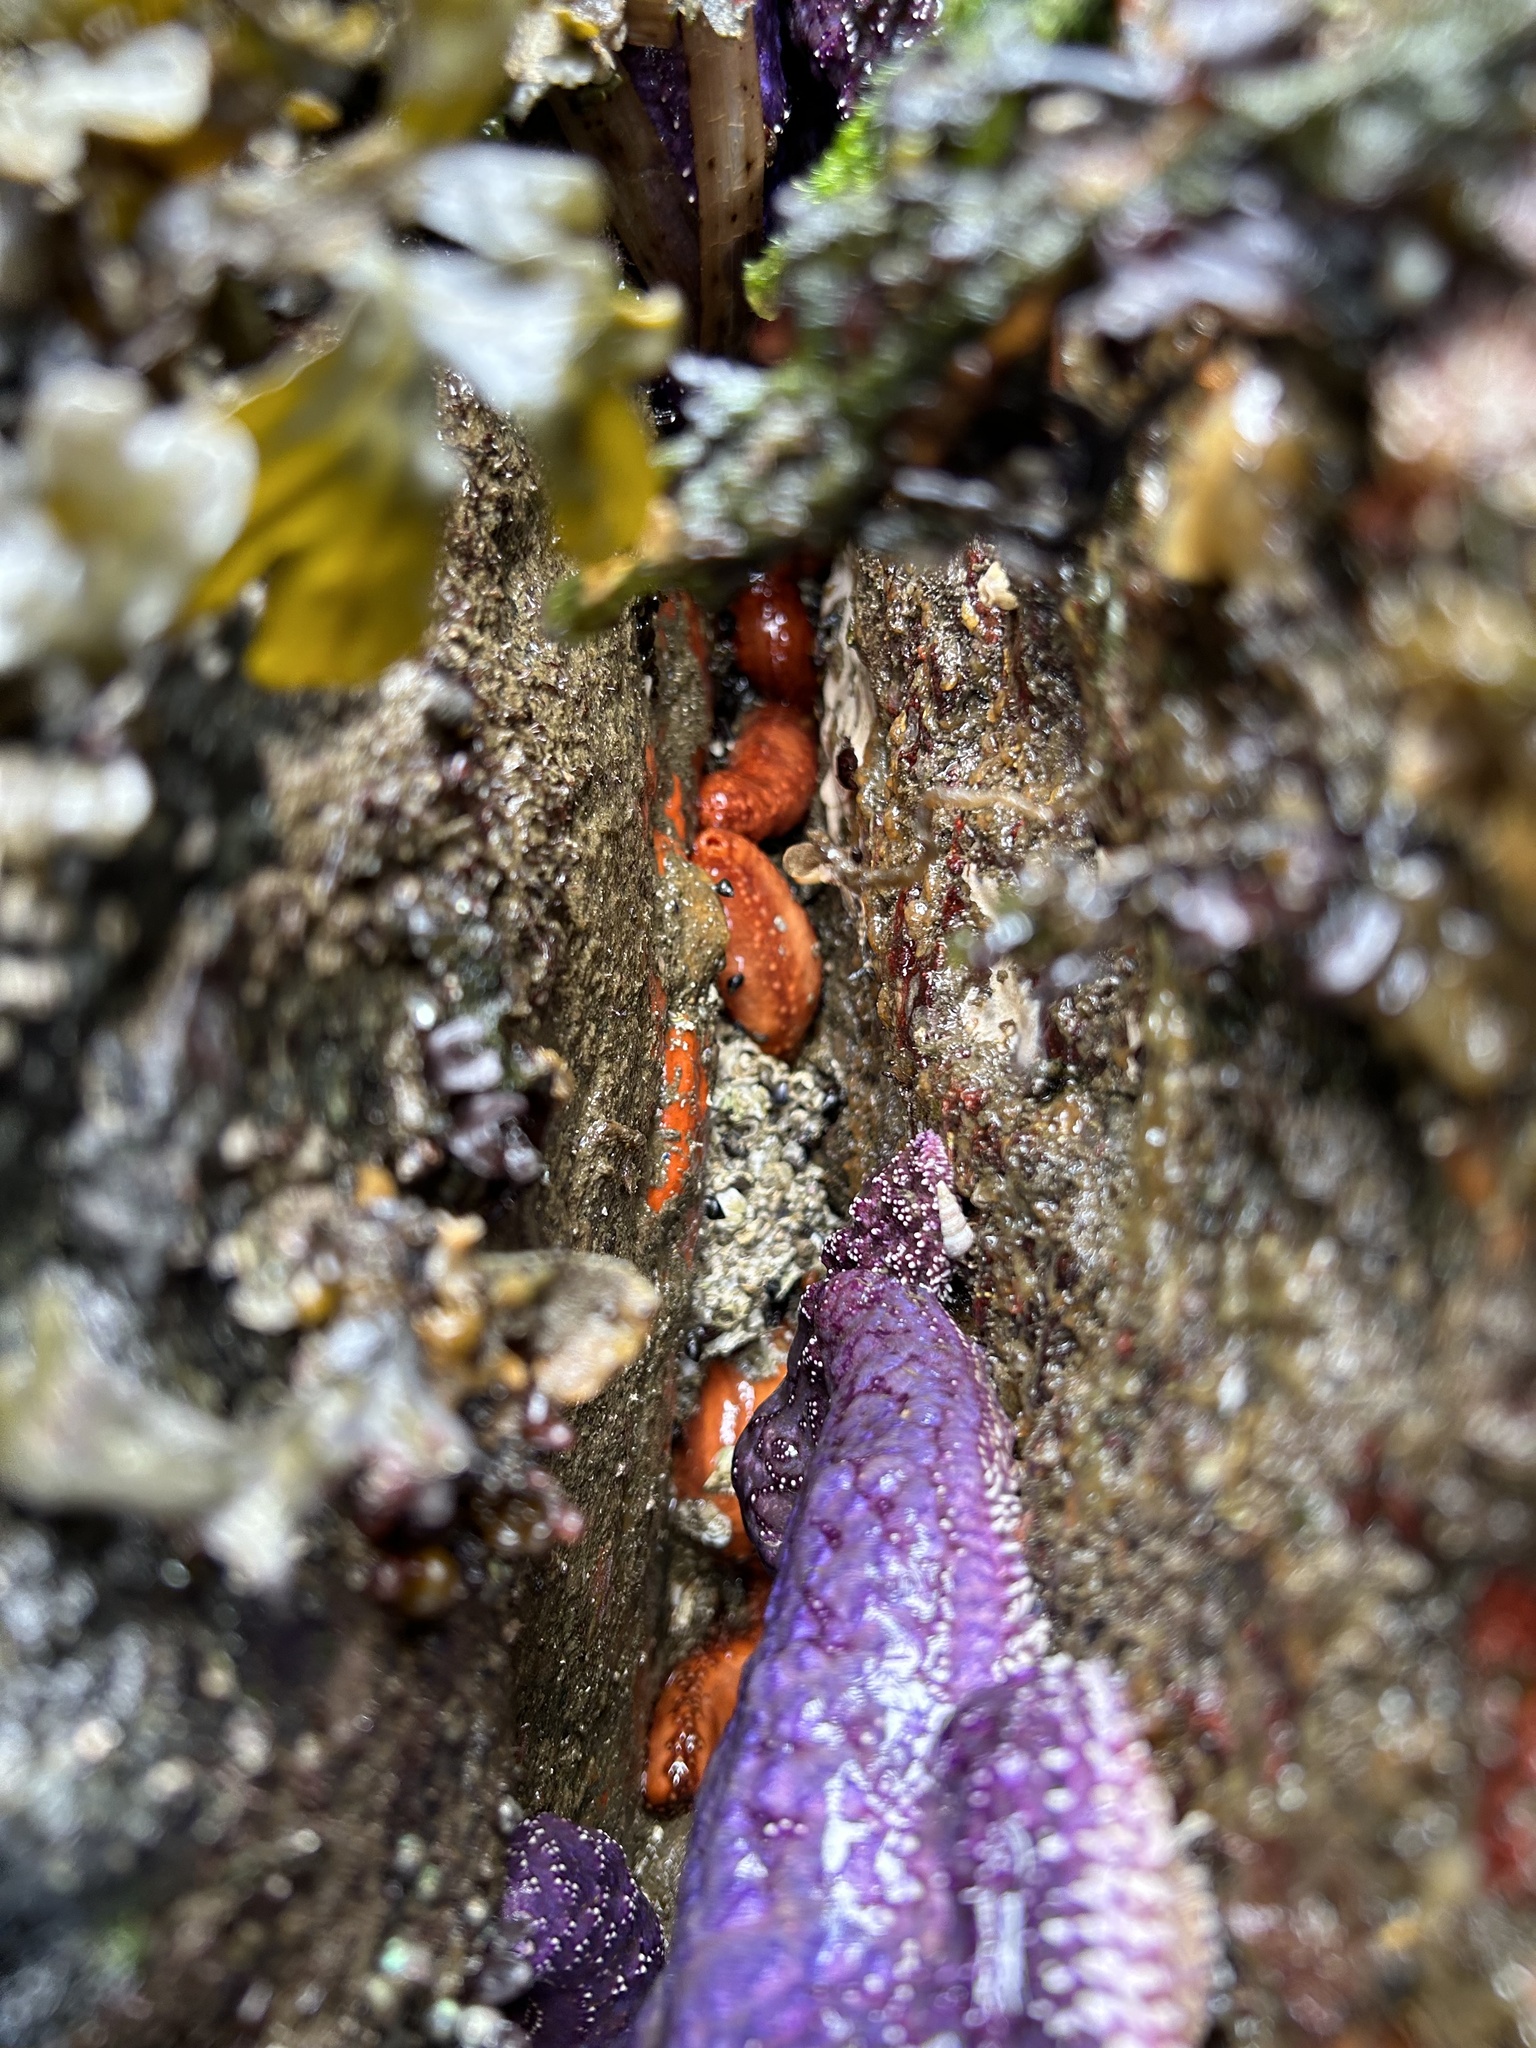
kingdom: Animalia
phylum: Echinodermata
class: Holothuroidea
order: Dendrochirotida
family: Cucumariidae
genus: Cucumaria
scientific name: Cucumaria miniata
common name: Orange sea cucumber
